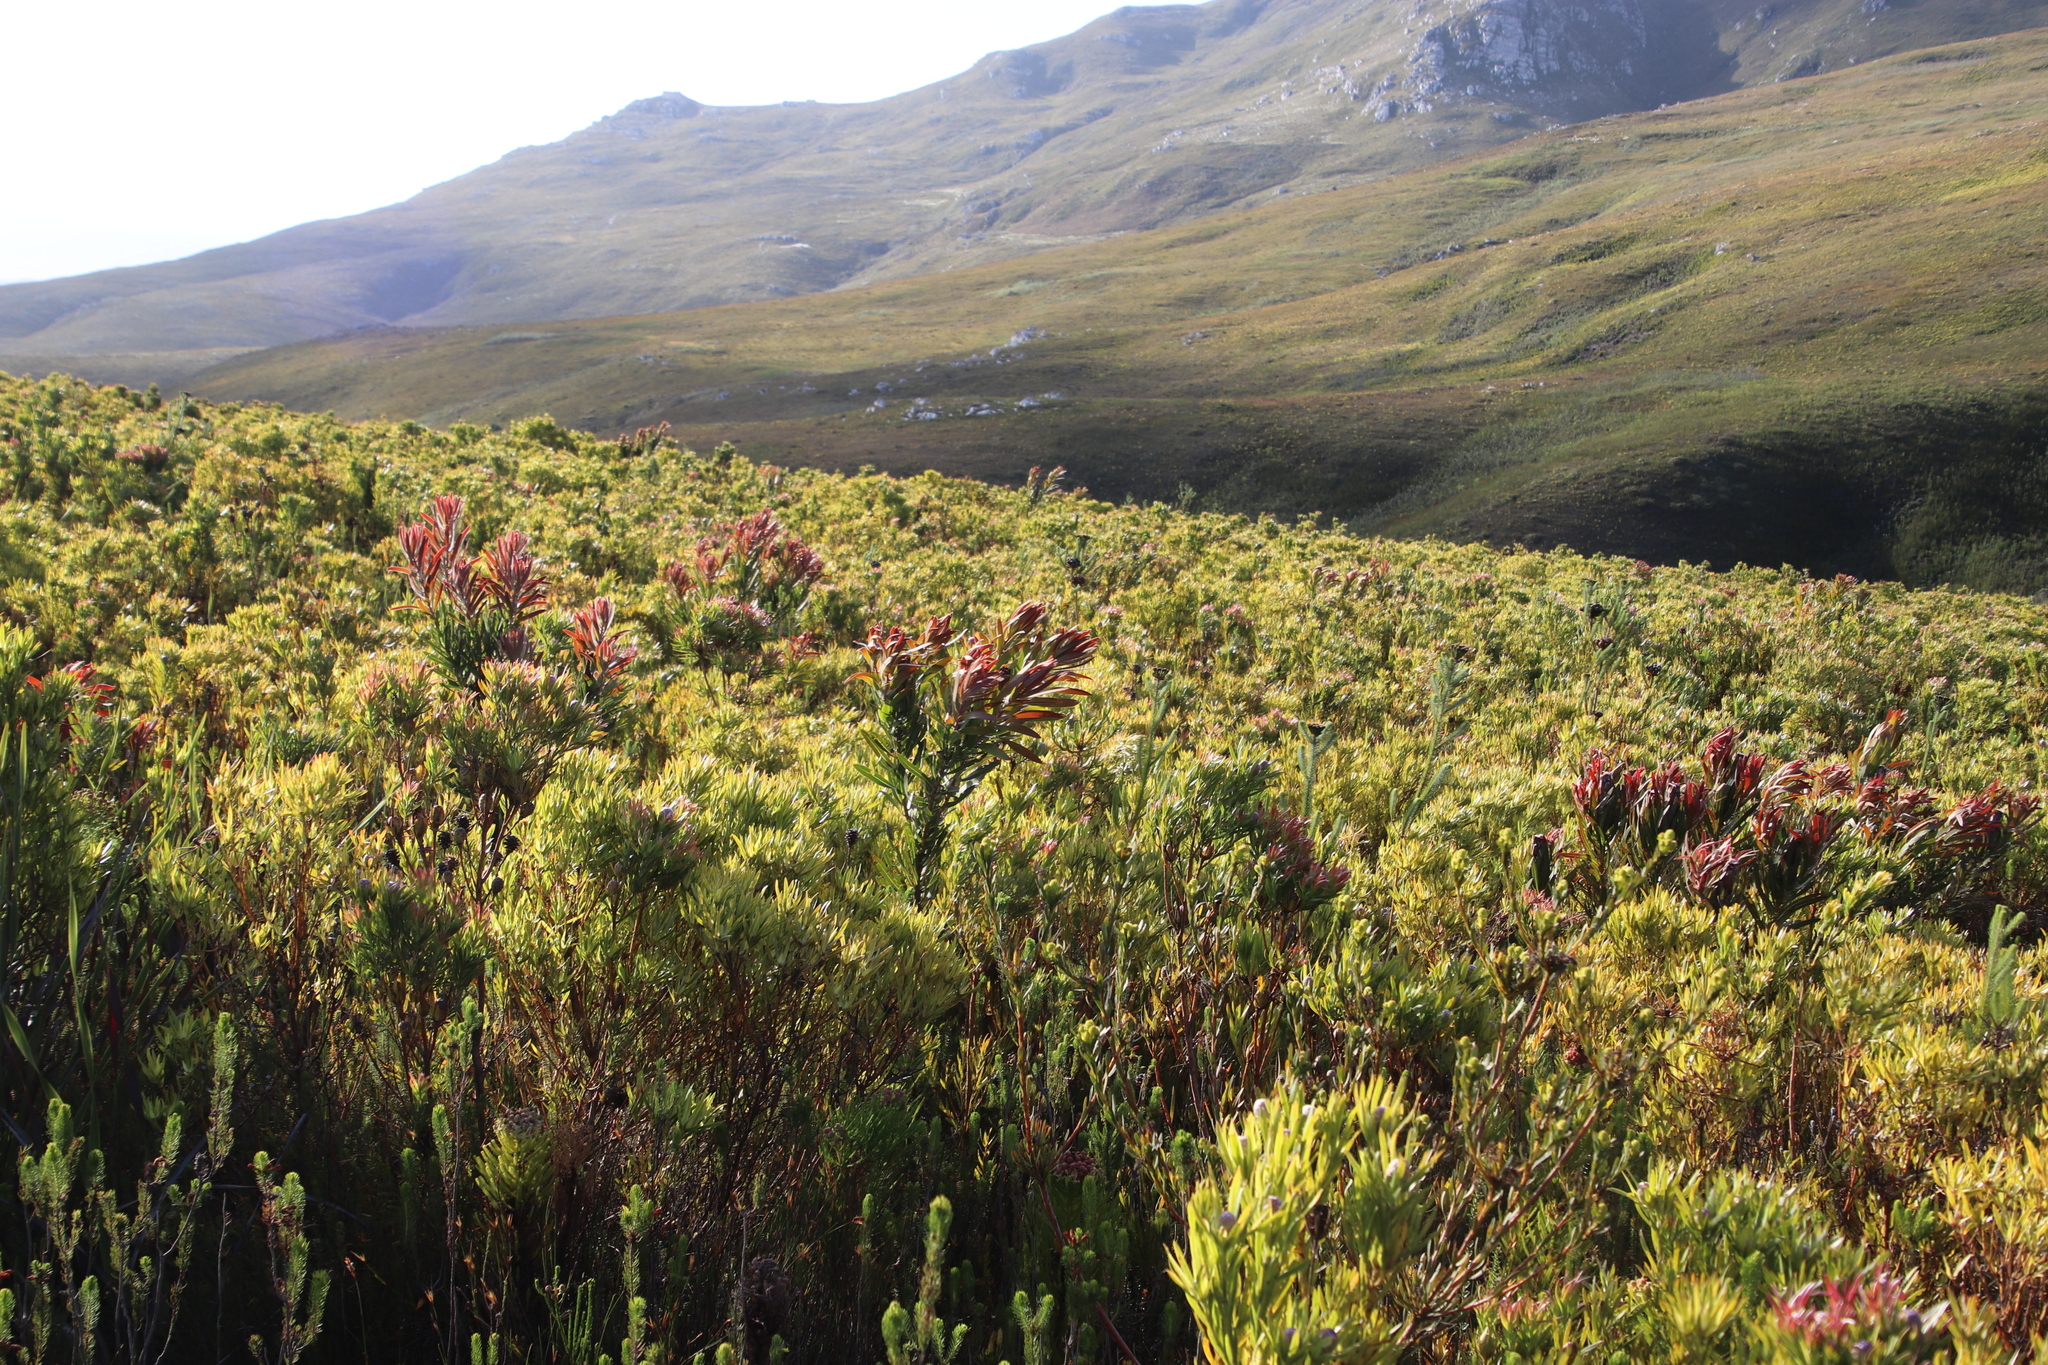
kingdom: Plantae
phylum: Tracheophyta
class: Magnoliopsida
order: Proteales
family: Proteaceae
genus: Protea
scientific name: Protea lepidocarpodendron
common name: Black-bearded protea
